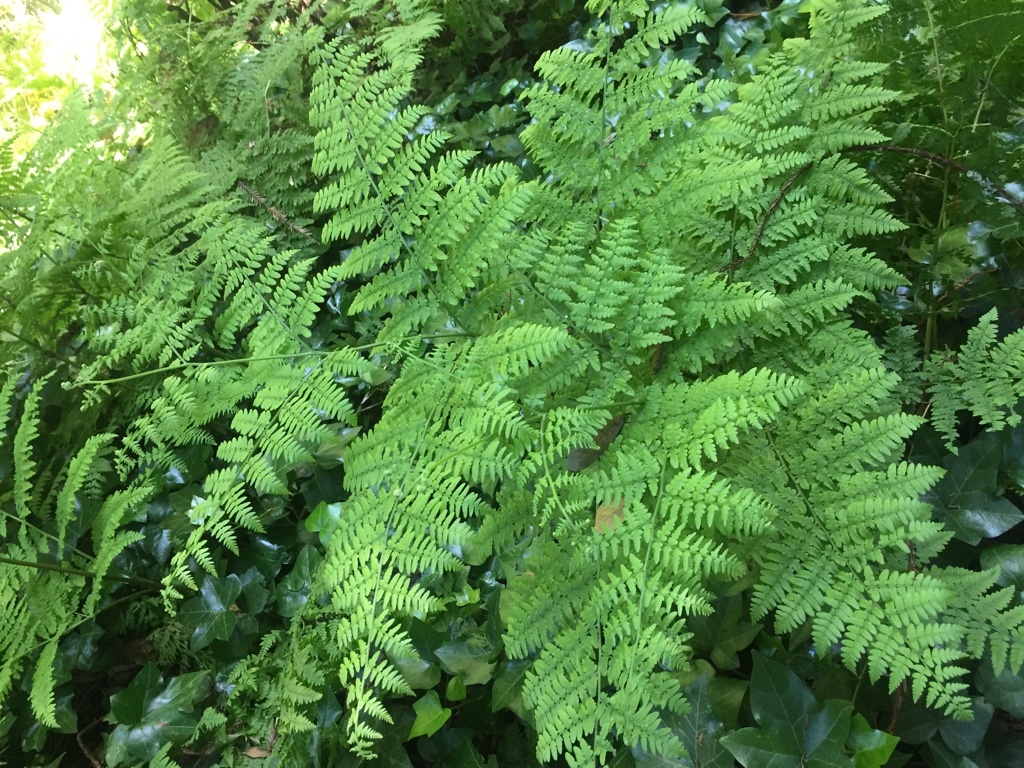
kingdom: Plantae
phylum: Tracheophyta
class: Polypodiopsida
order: Polypodiales
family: Dennstaedtiaceae
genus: Pteridium
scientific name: Pteridium aquilinum
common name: Bracken
